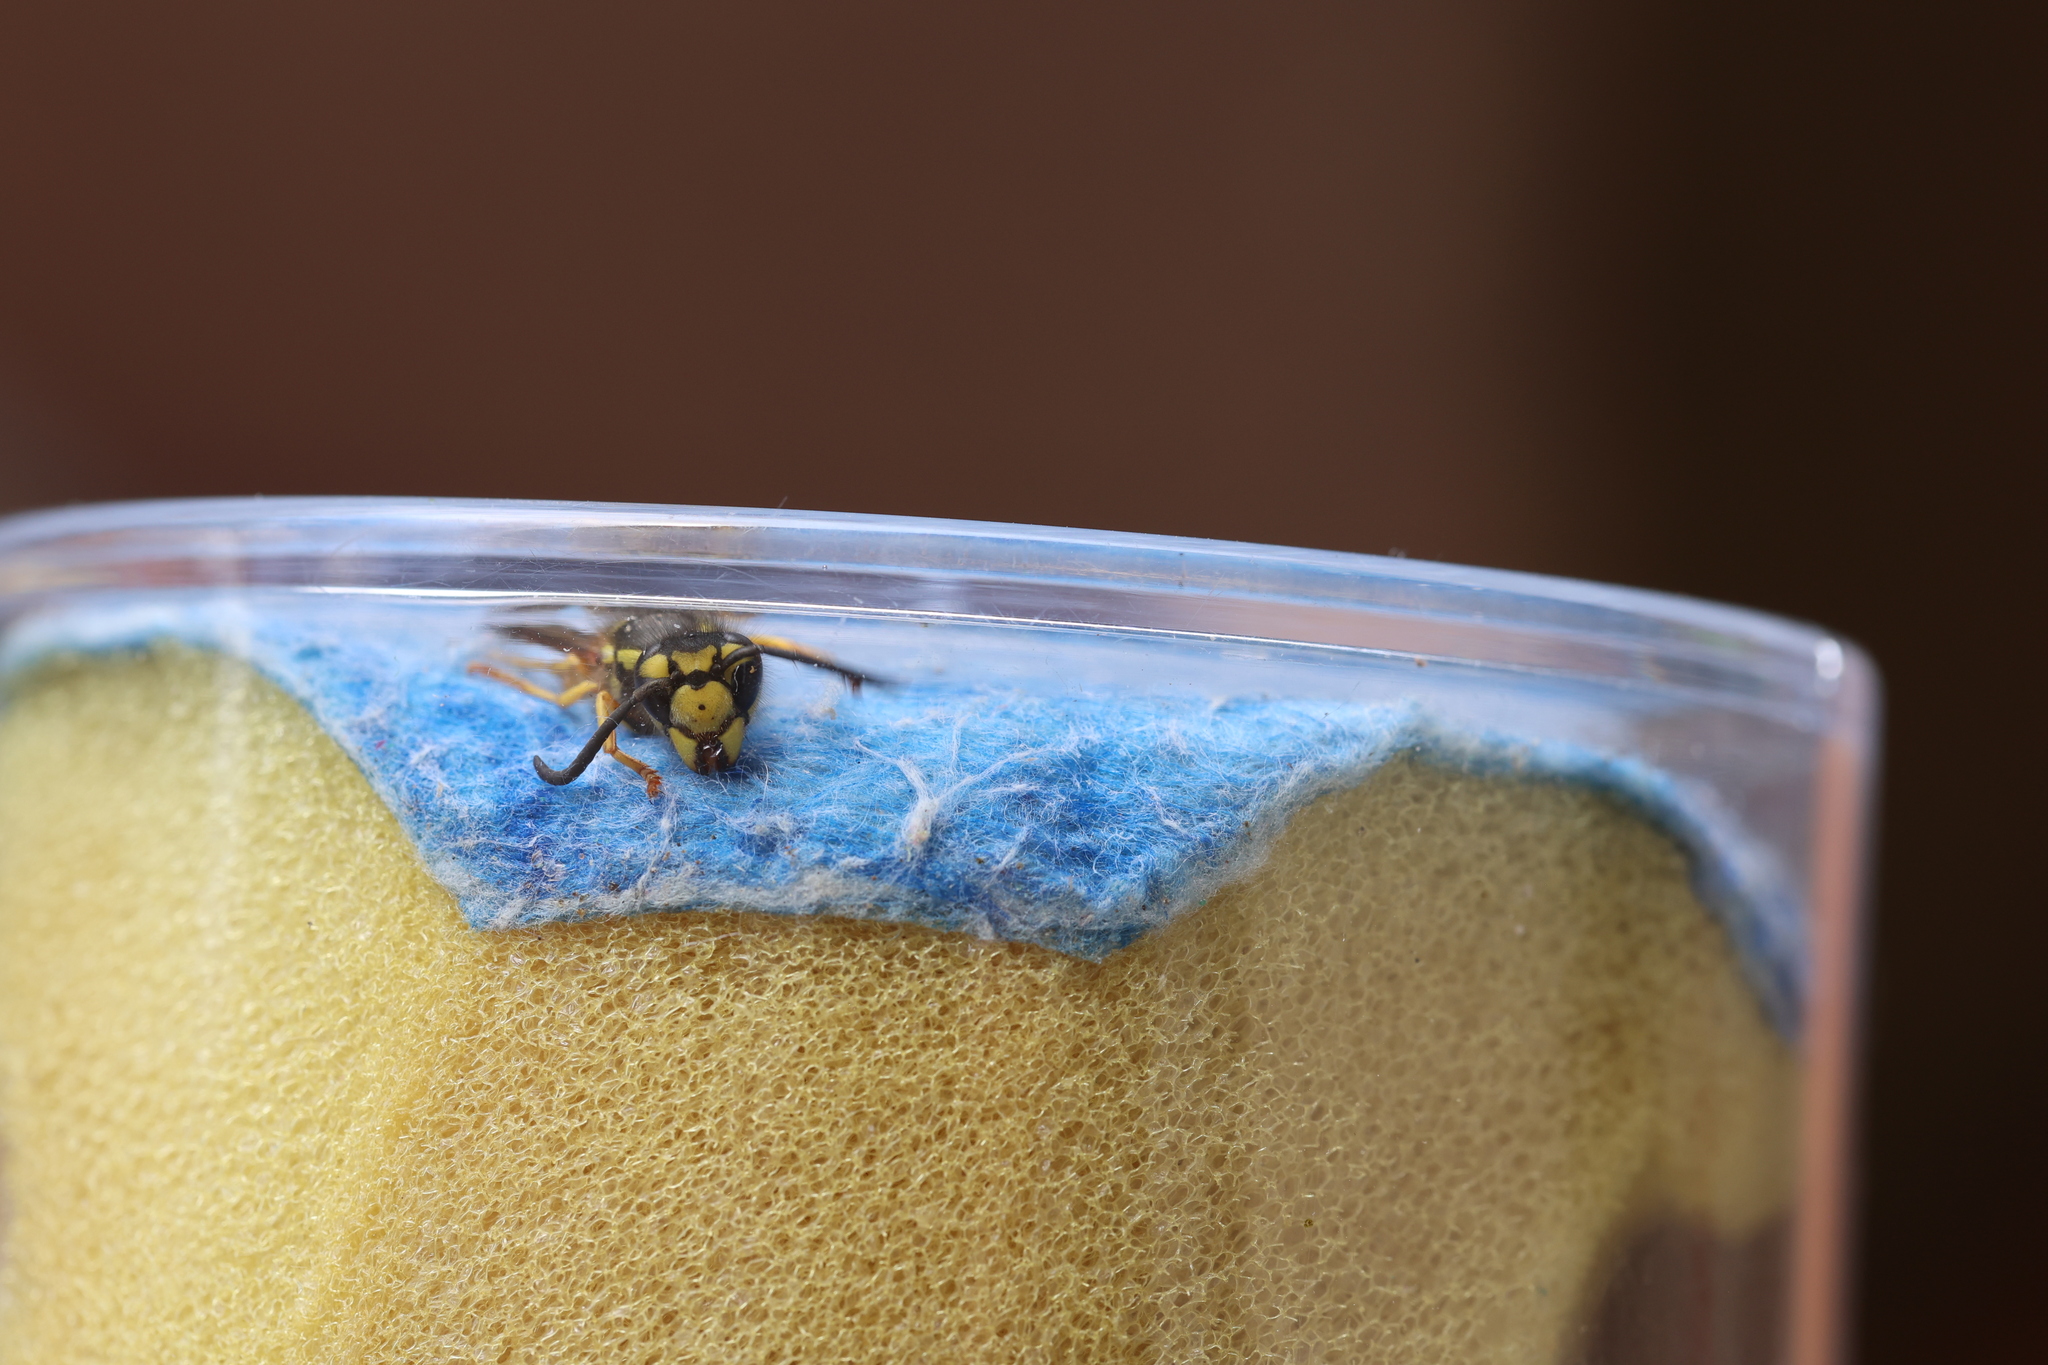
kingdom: Animalia
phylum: Arthropoda
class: Insecta
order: Hymenoptera
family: Vespidae
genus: Vespula
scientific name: Vespula germanica
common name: German wasp
